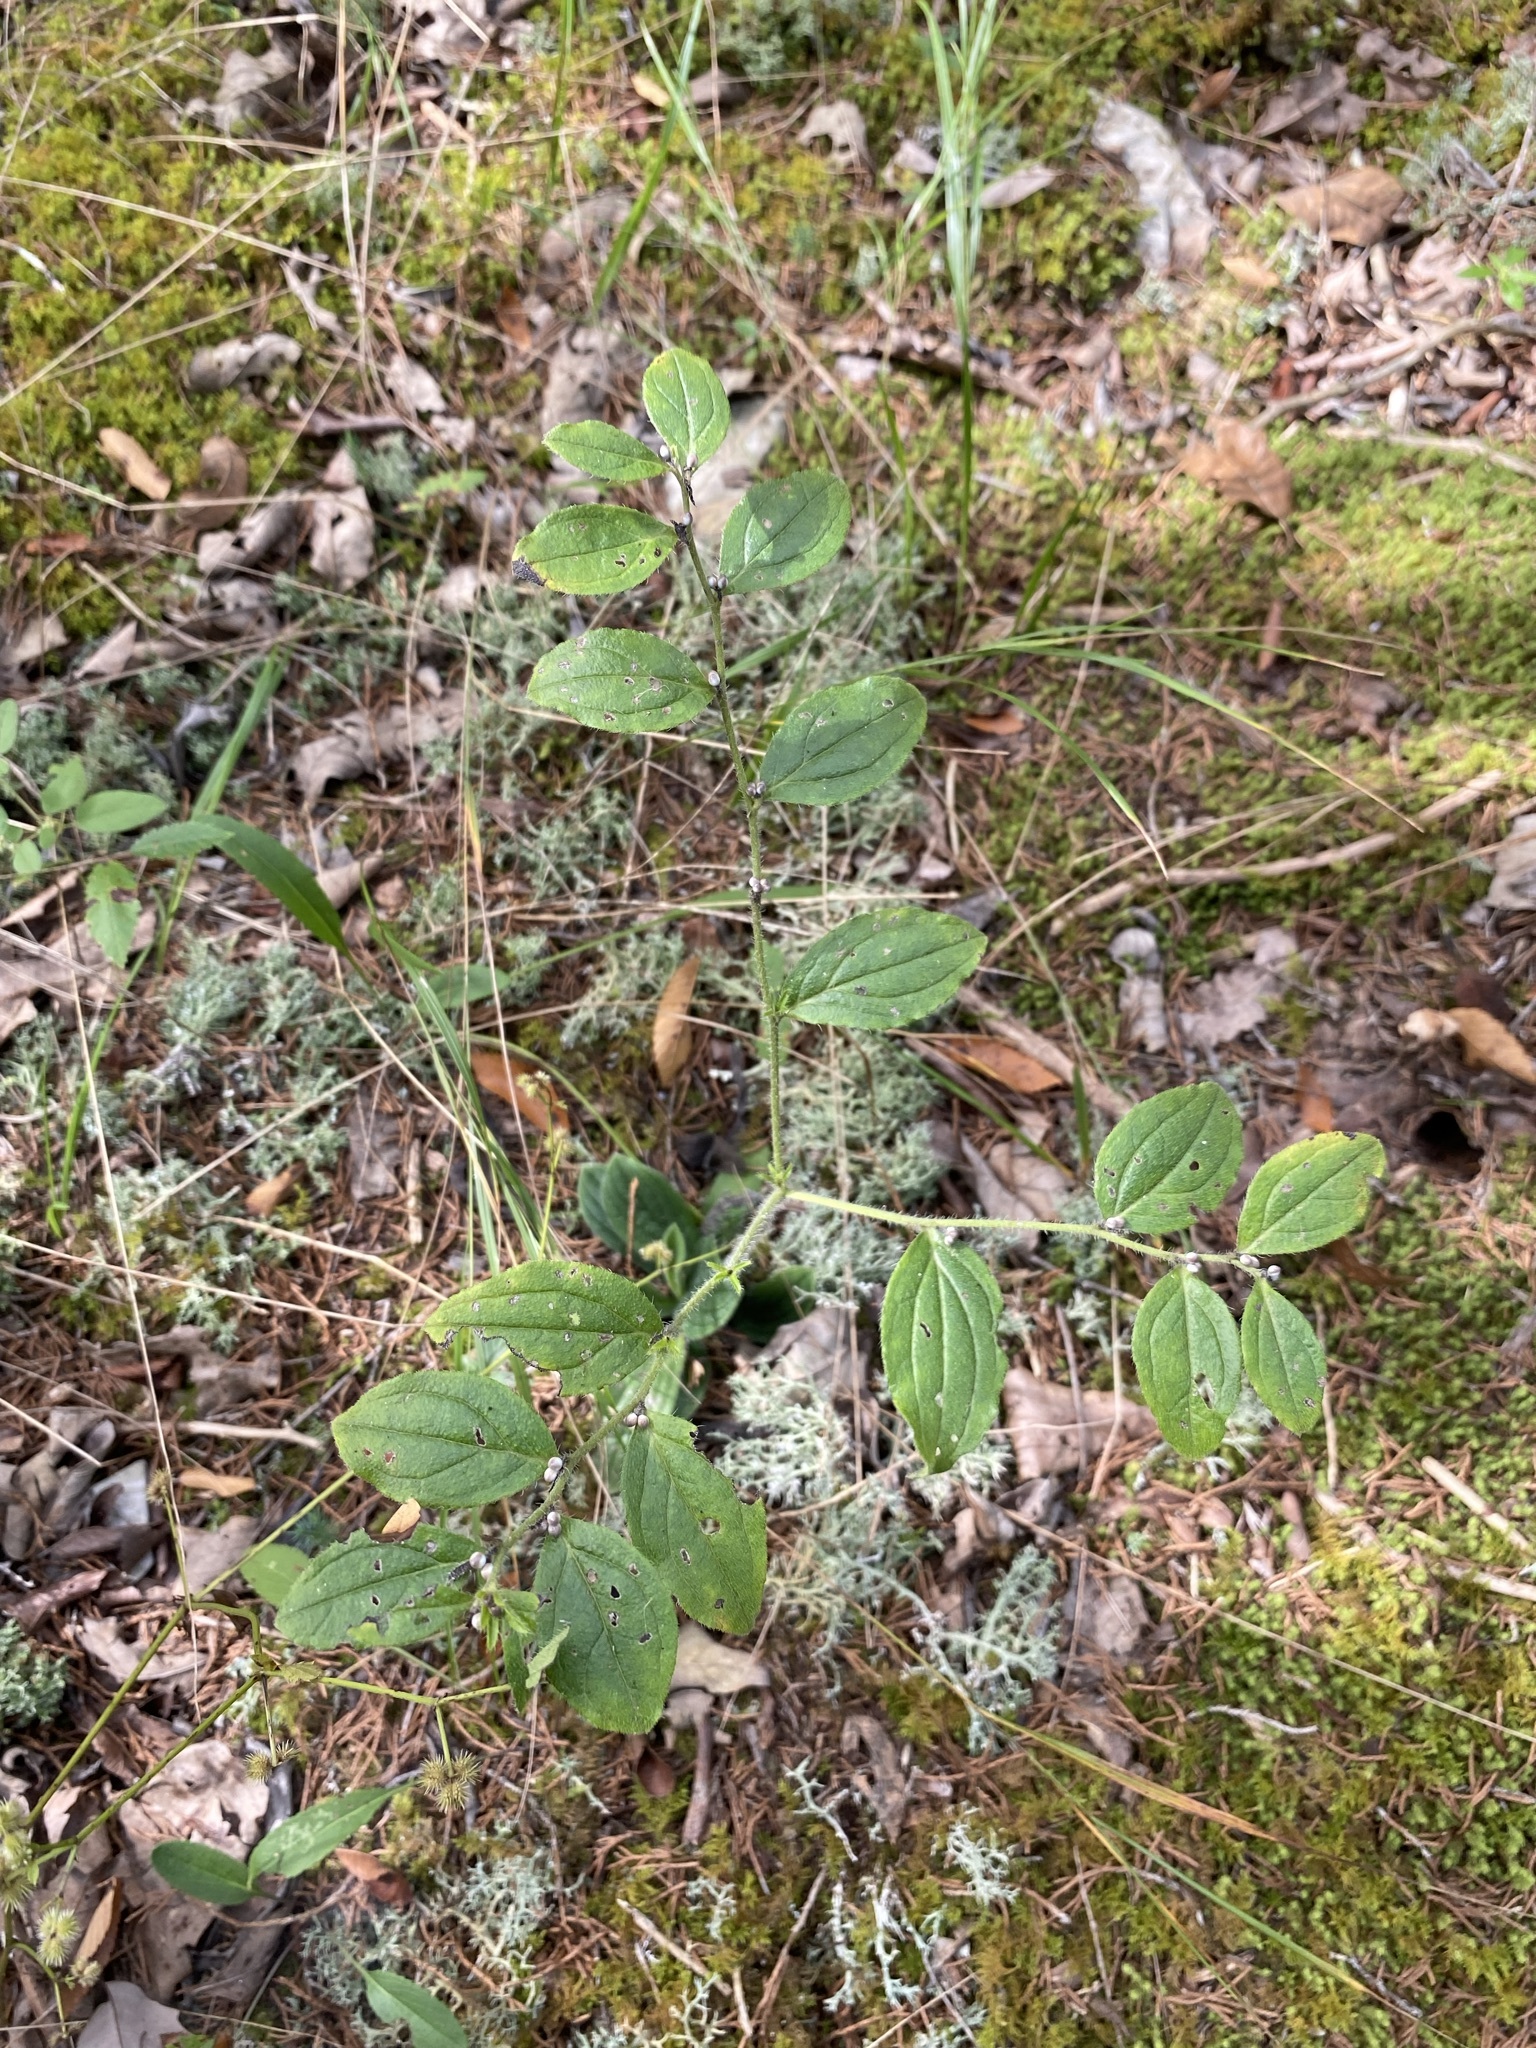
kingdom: Plantae
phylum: Tracheophyta
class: Magnoliopsida
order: Boraginales
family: Boraginaceae
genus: Lithospermum
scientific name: Lithospermum tuberosum
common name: Southern stoneseed
